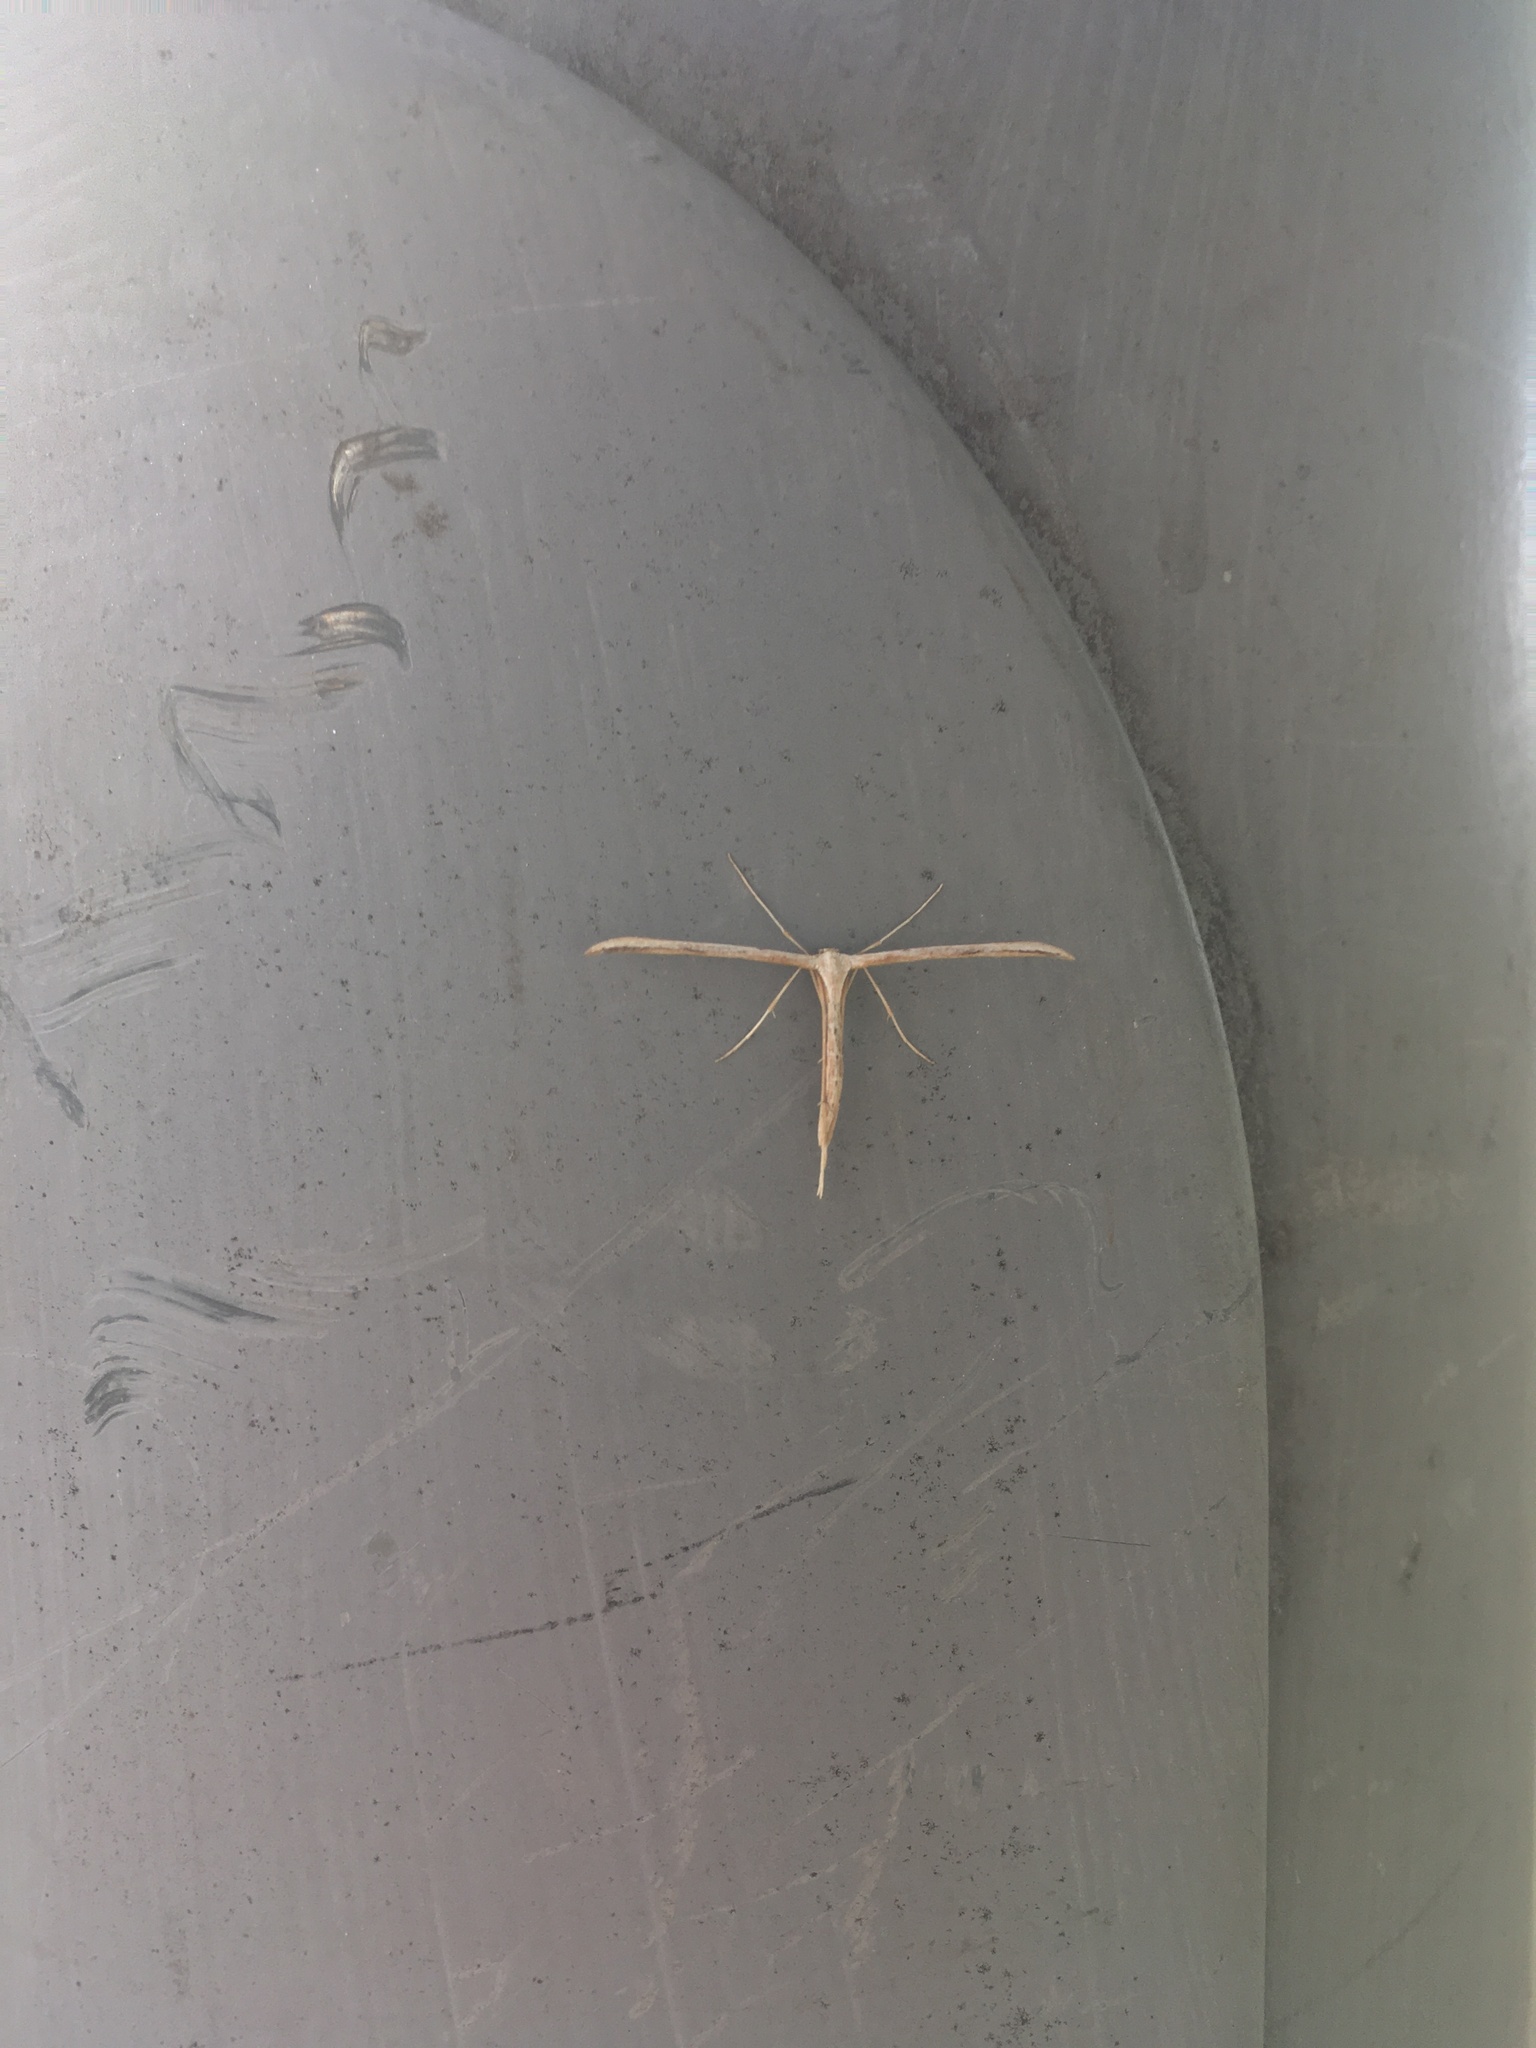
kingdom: Animalia
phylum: Arthropoda
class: Insecta
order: Lepidoptera
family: Pterophoridae
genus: Emmelina
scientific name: Emmelina monodactyla
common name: Common plume
